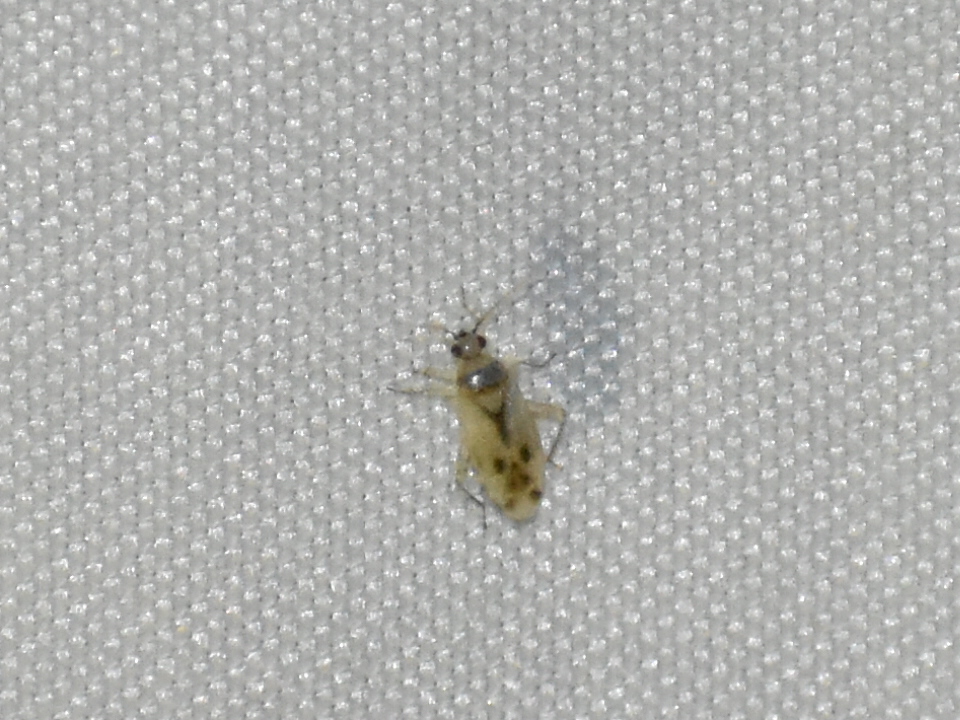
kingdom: Animalia
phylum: Arthropoda
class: Insecta
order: Hemiptera
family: Miridae
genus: Plagiognathus
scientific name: Plagiognathus albatus
